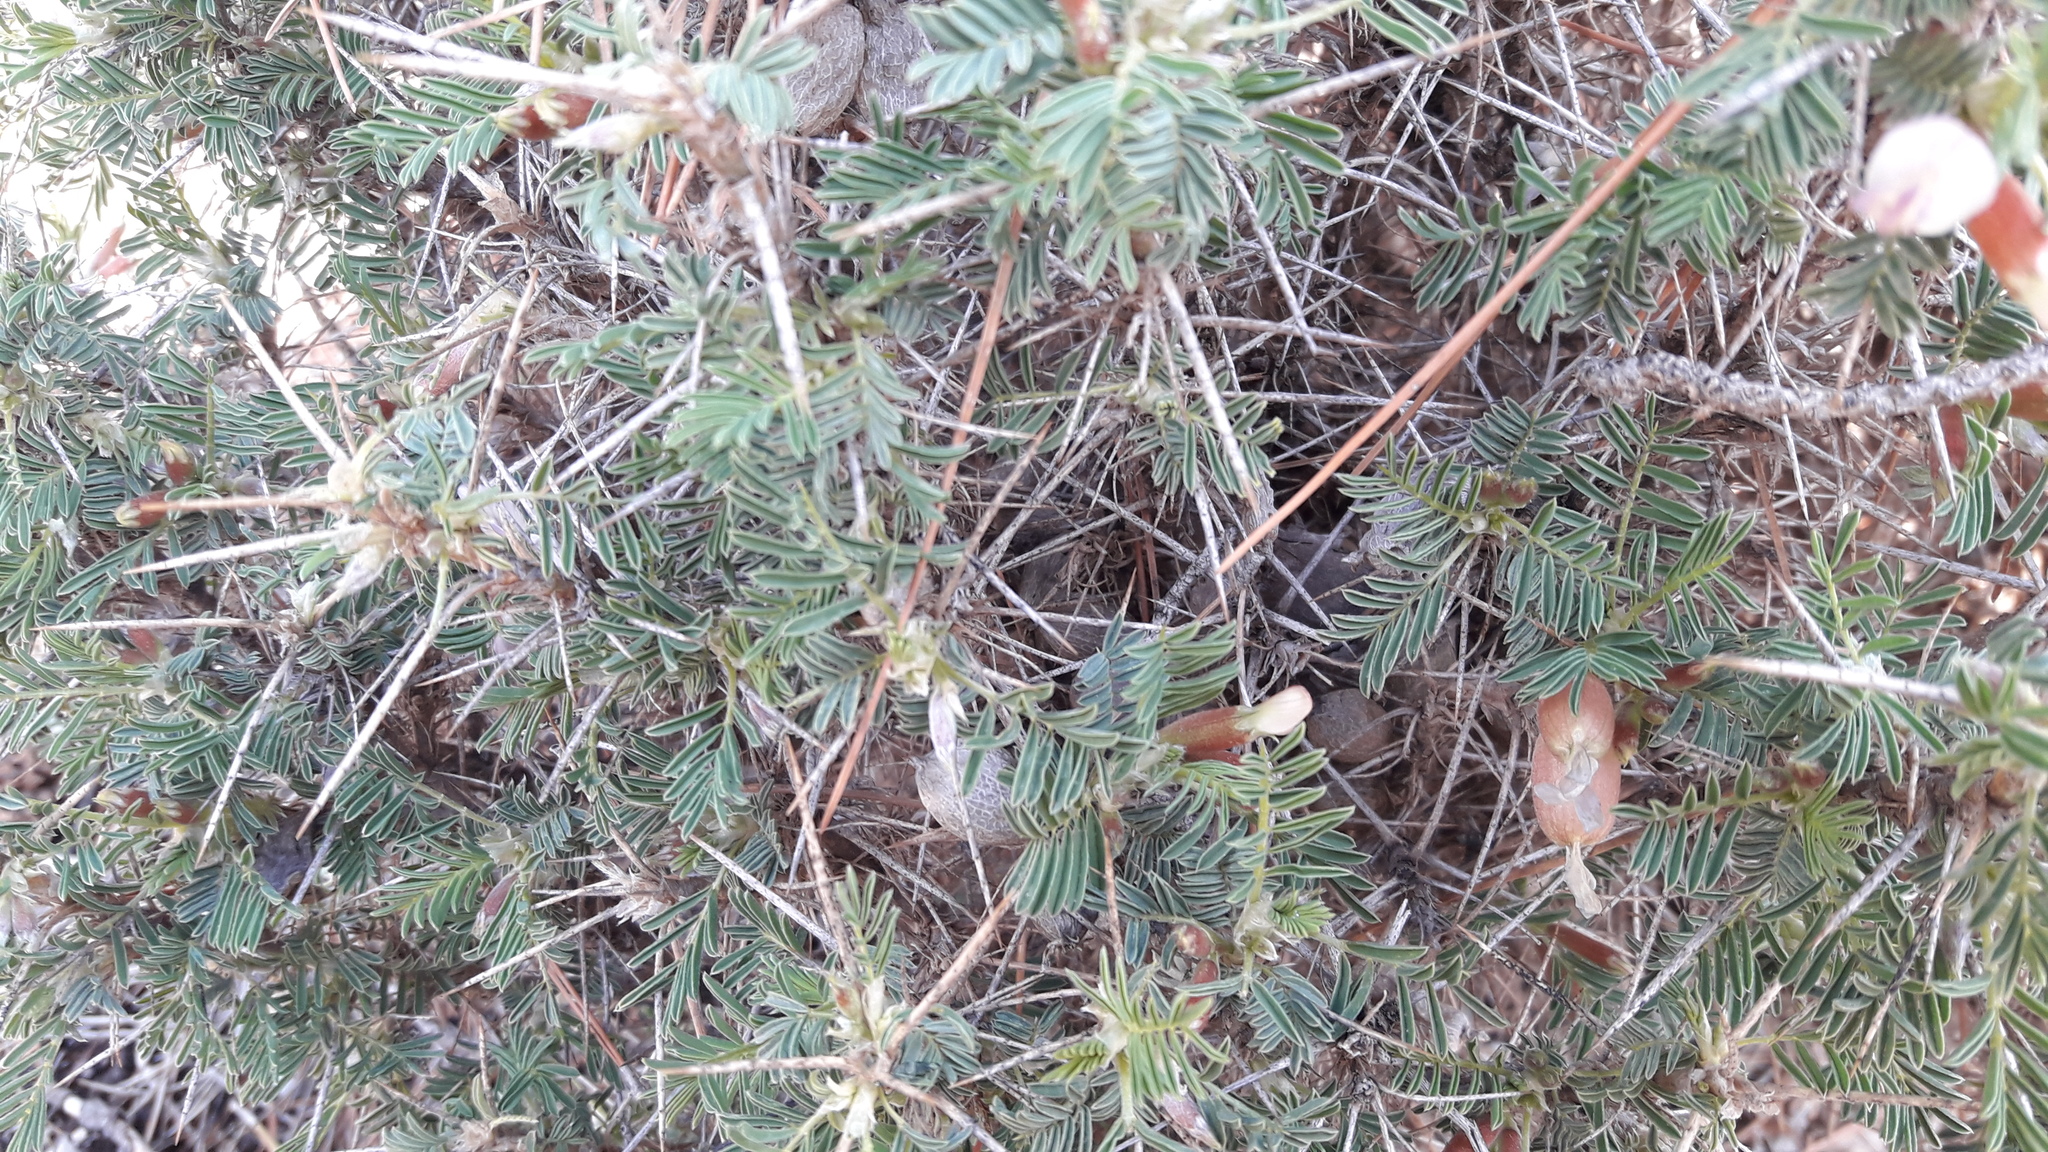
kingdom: Plantae
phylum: Tracheophyta
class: Magnoliopsida
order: Fabales
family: Fabaceae
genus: Astragalus
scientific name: Astragalus armatus
